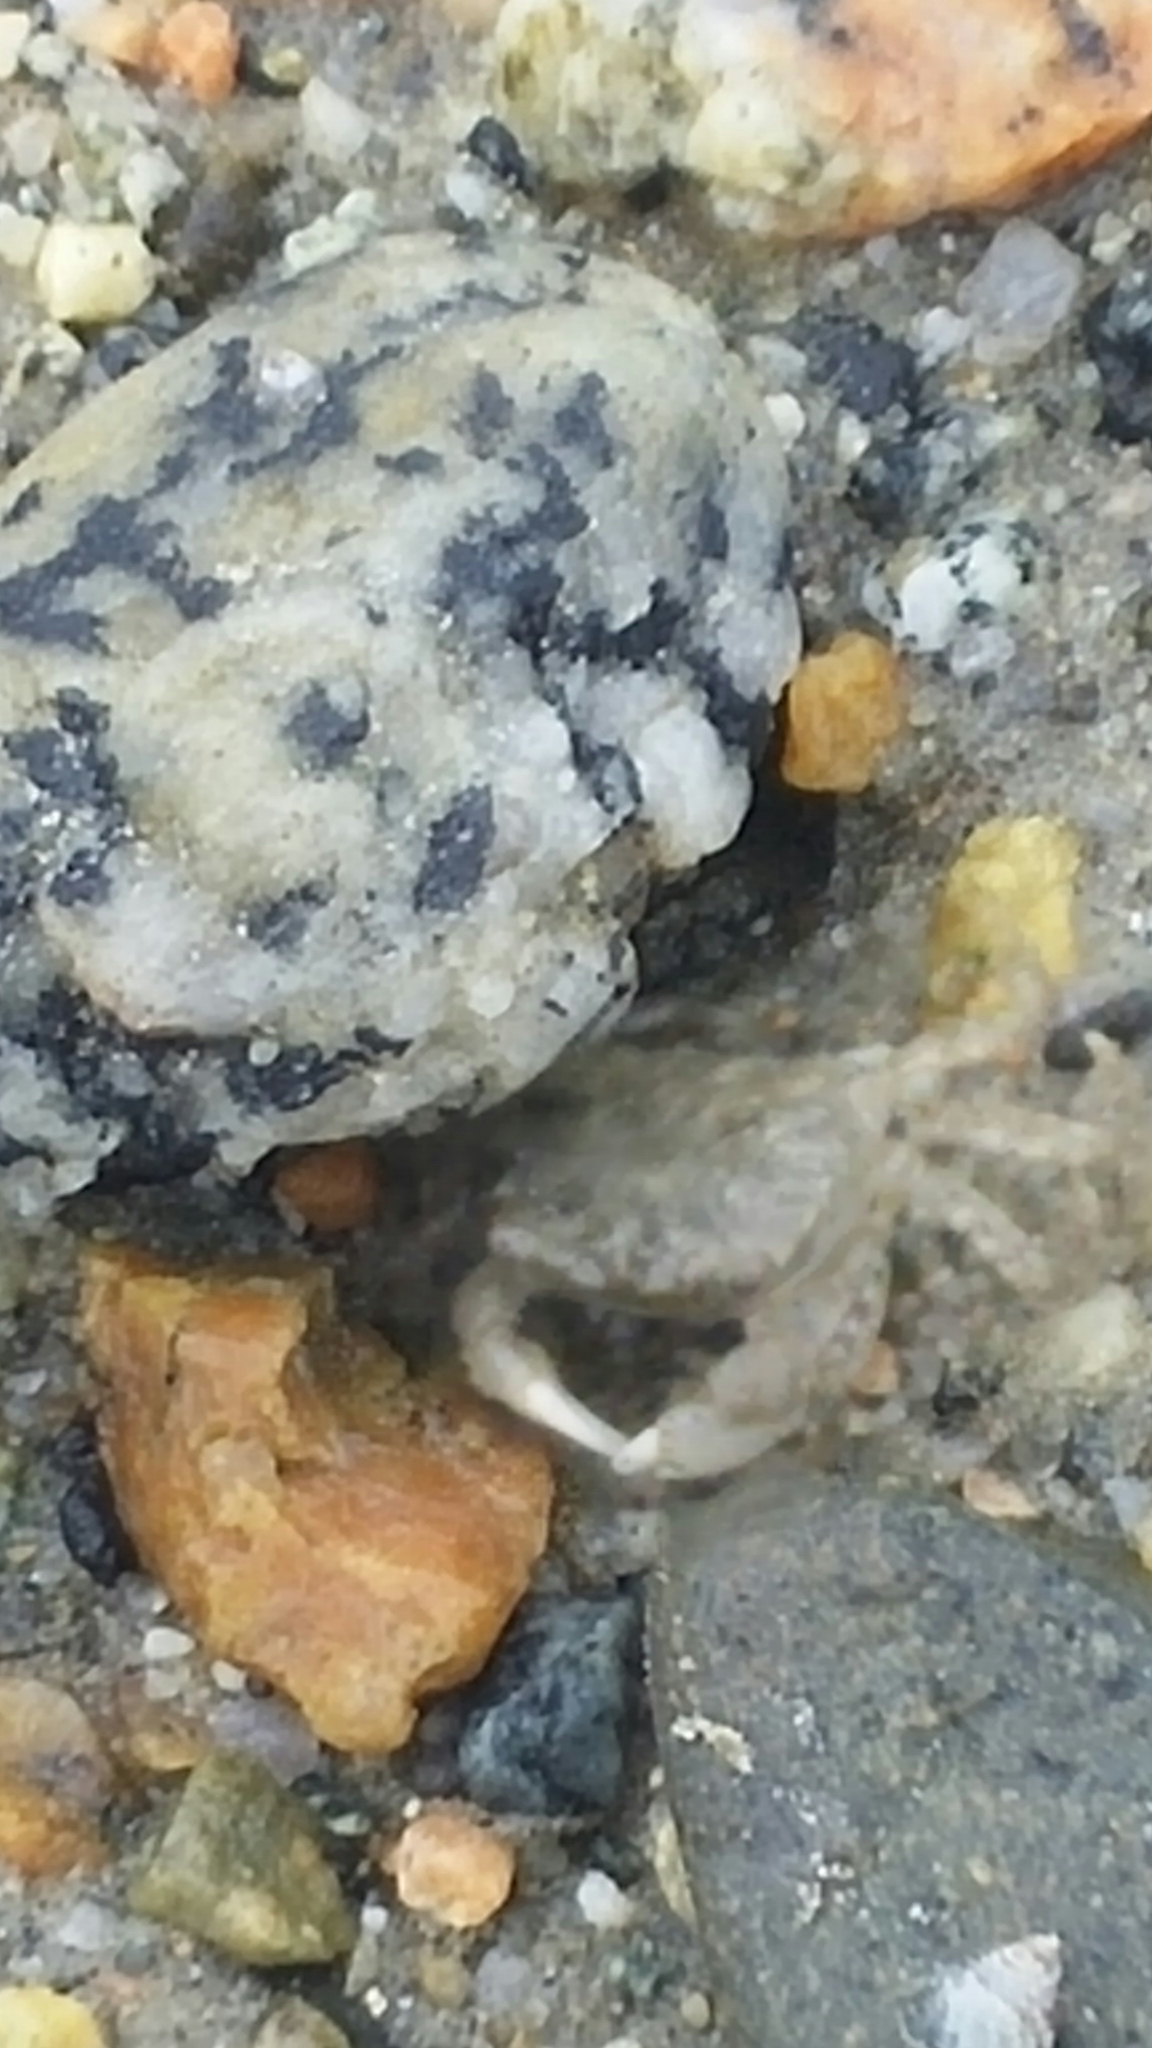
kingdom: Animalia
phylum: Arthropoda
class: Malacostraca
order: Decapoda
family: Varunidae
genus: Hemigrapsus
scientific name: Hemigrapsus oregonensis
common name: Yellow shore crab
